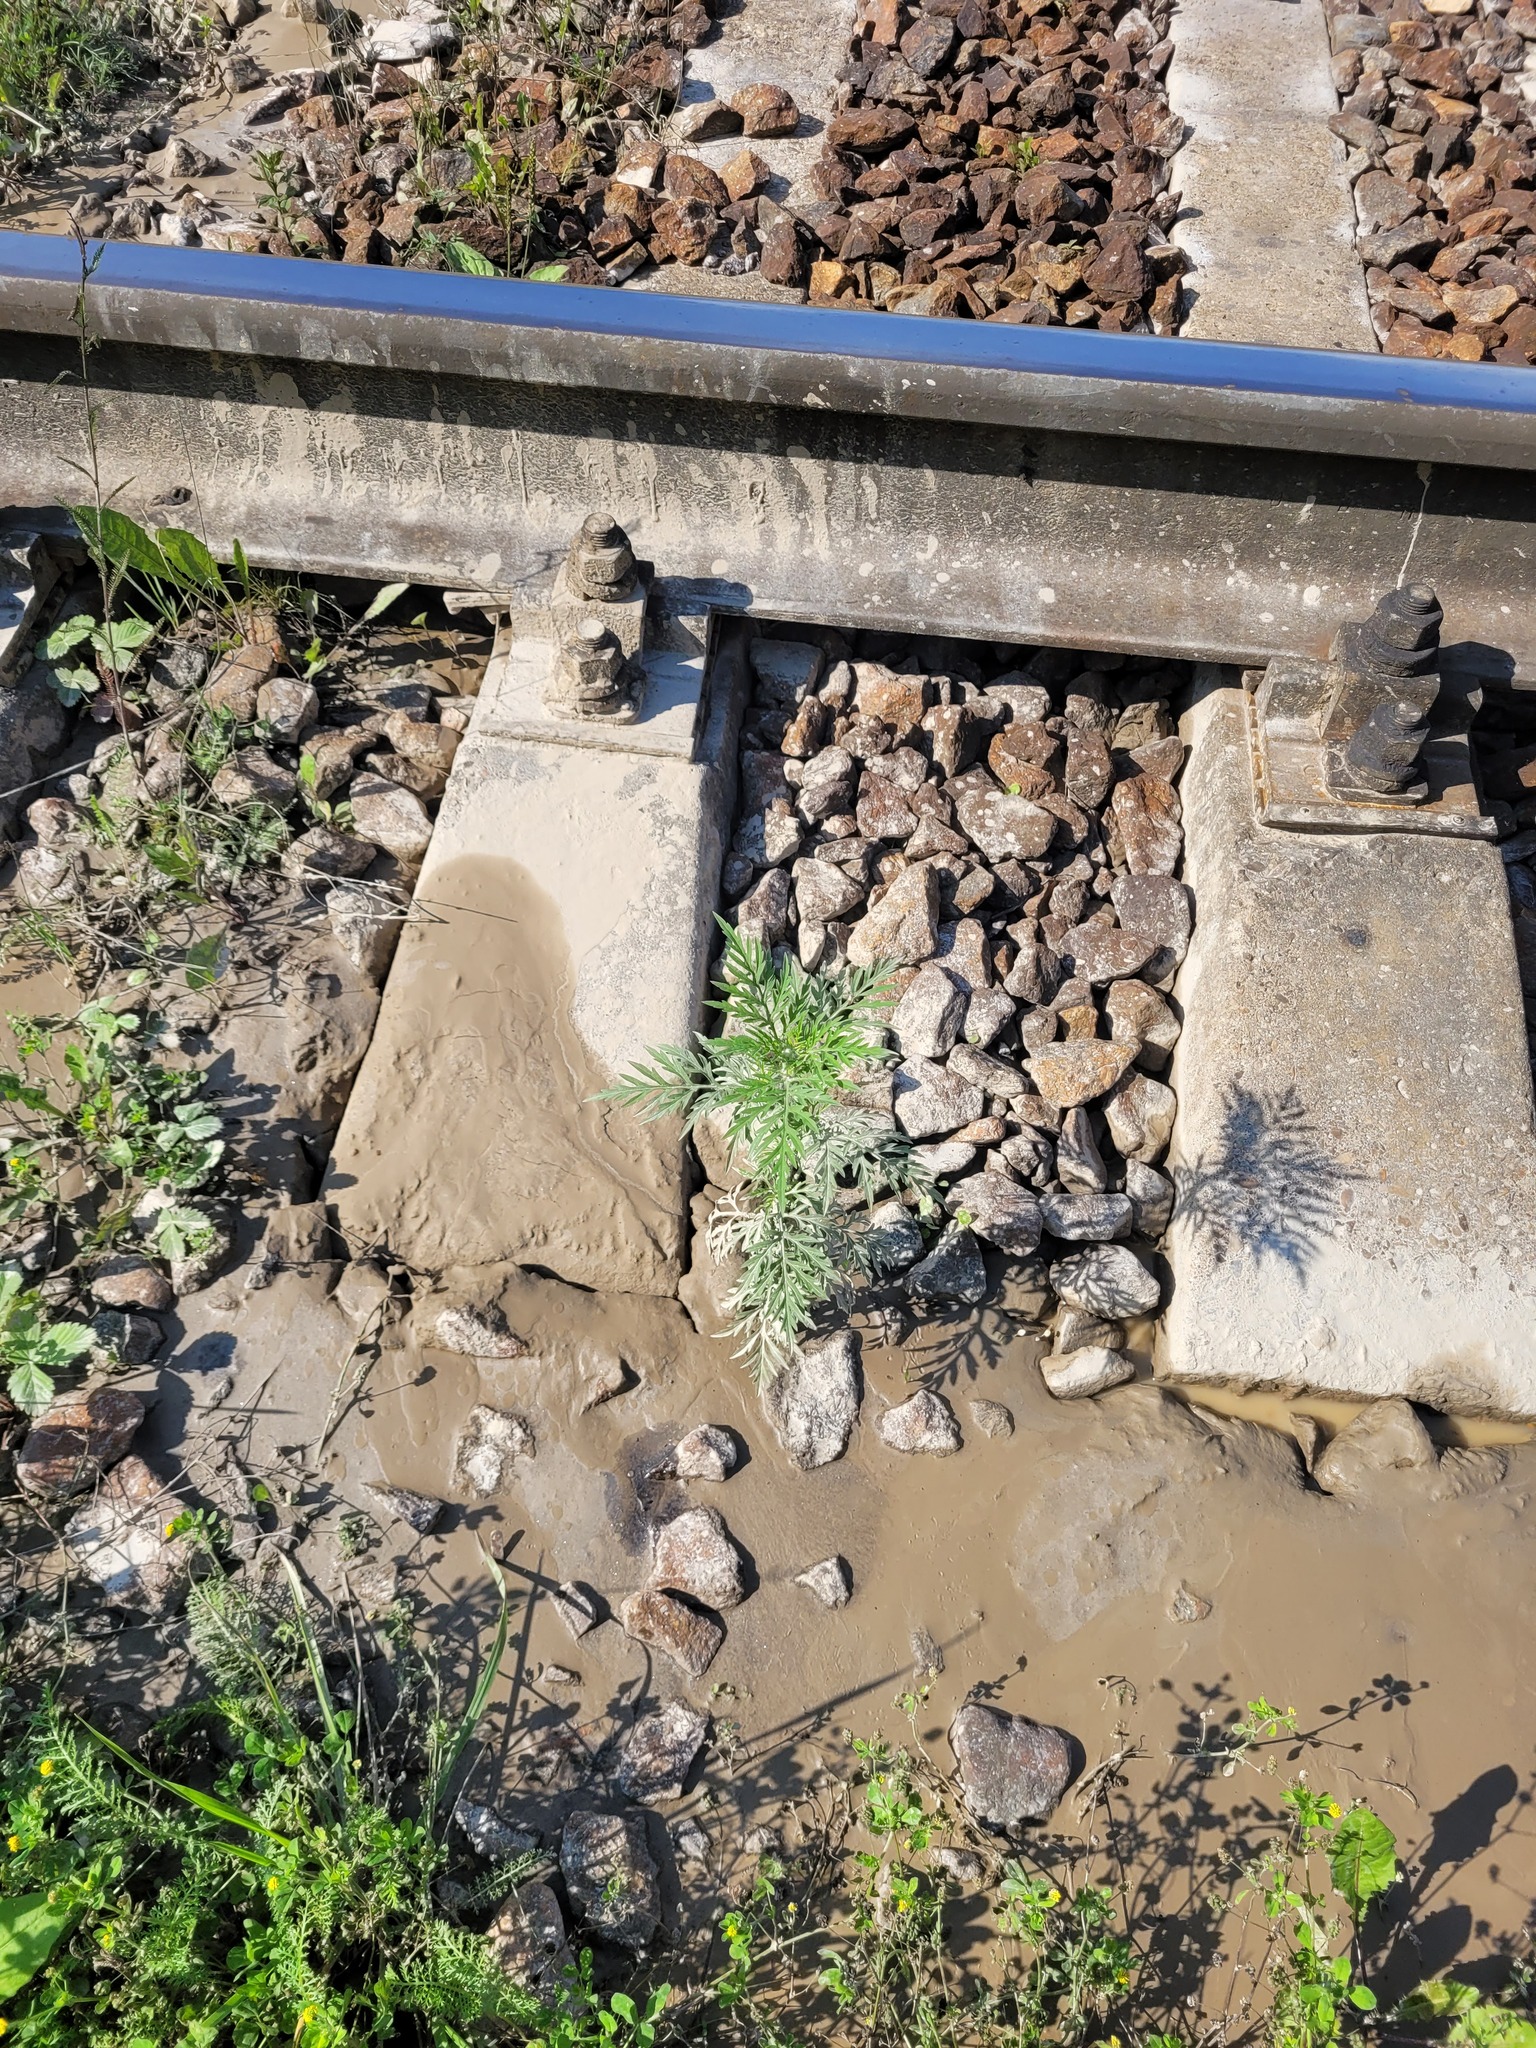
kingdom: Plantae
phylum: Tracheophyta
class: Magnoliopsida
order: Asterales
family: Asteraceae
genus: Ambrosia
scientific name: Ambrosia artemisiifolia
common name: Annual ragweed
